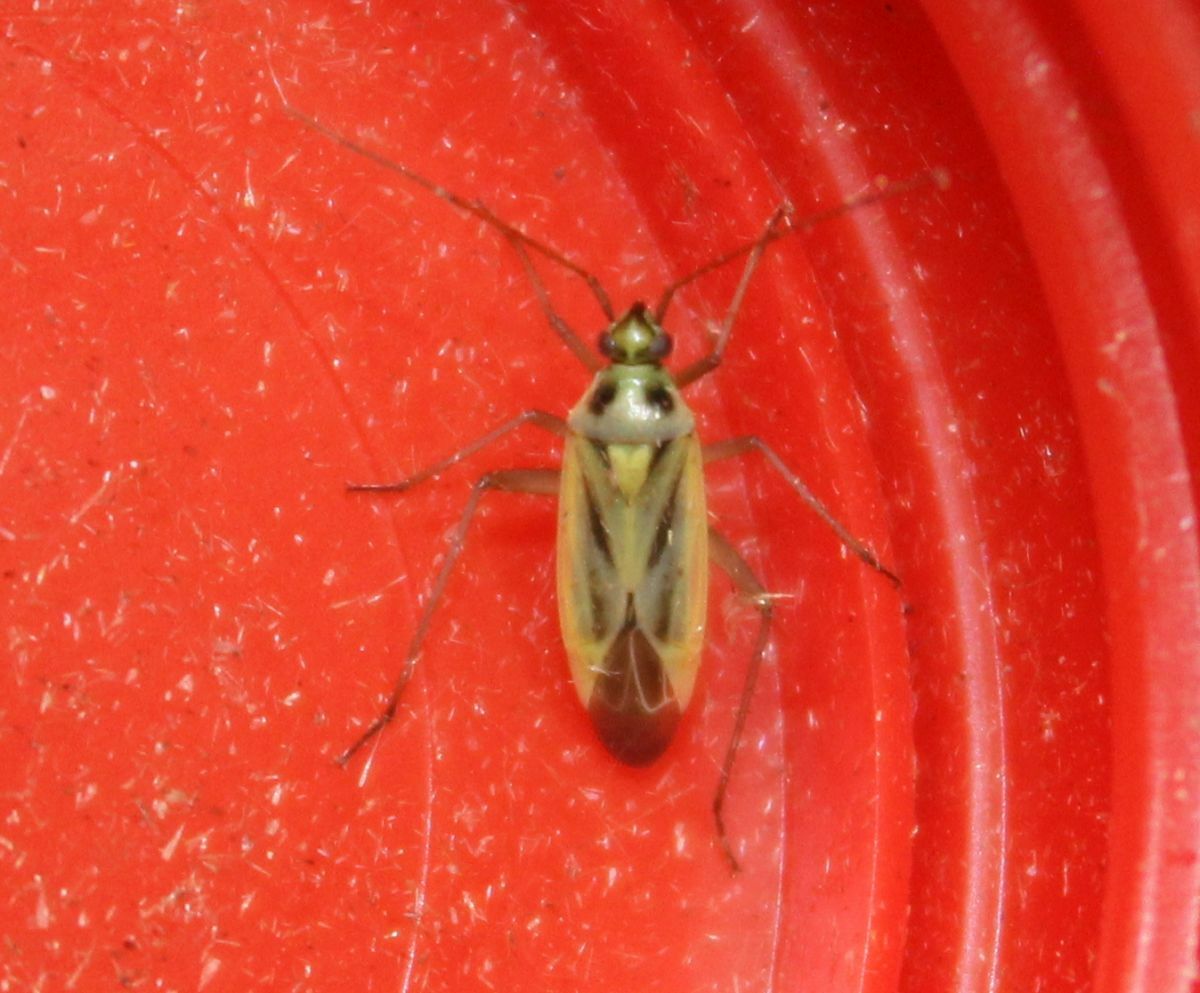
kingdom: Animalia
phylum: Arthropoda
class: Insecta
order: Hemiptera
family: Miridae
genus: Stenotus
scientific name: Stenotus binotatus
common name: Plant bug
